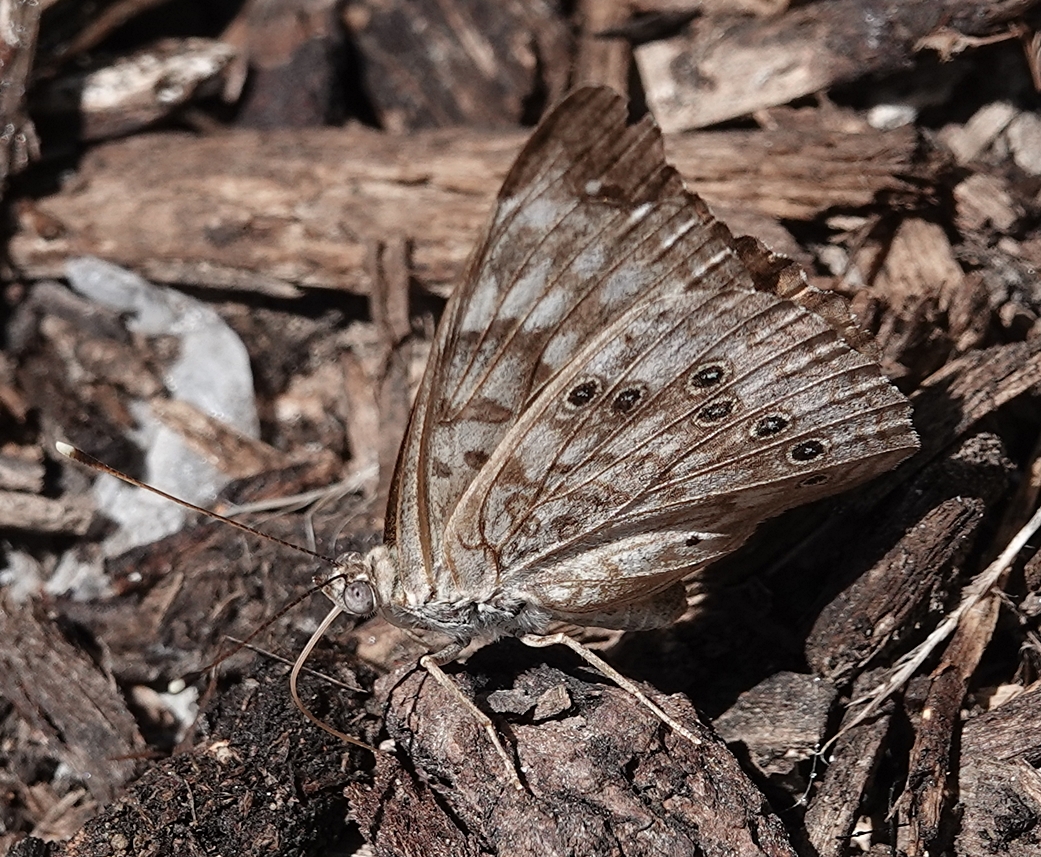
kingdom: Animalia
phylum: Arthropoda
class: Insecta
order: Lepidoptera
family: Nymphalidae
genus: Asterocampa
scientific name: Asterocampa celtis
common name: Hackberry emperor
